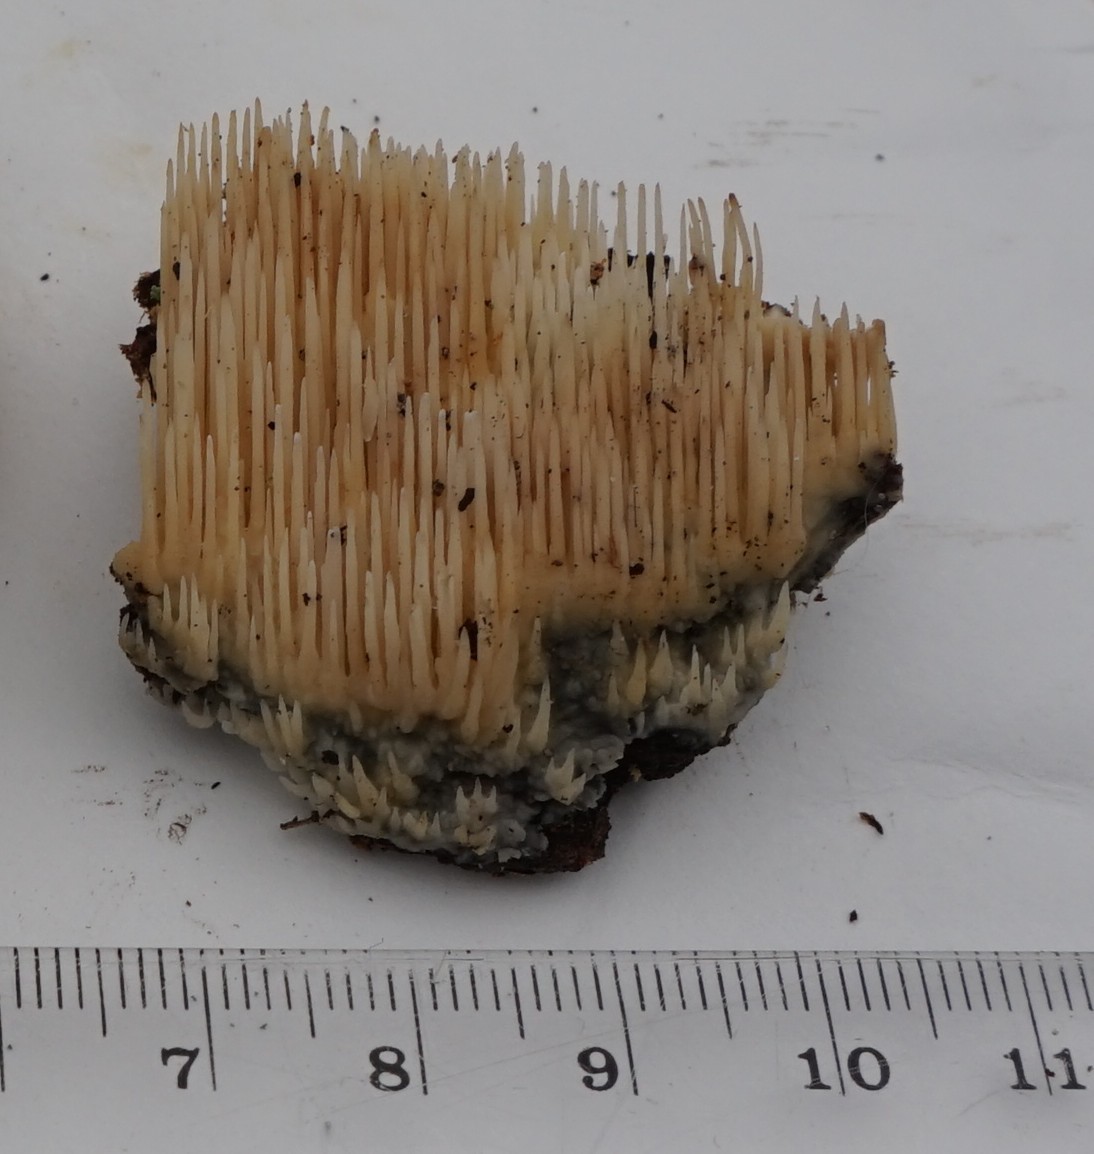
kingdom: Fungi
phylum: Basidiomycota
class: Agaricomycetes
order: Agaricales
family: Radulomycetaceae
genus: Radulomyces
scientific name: Radulomyces copelandii
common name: Asian beauty
